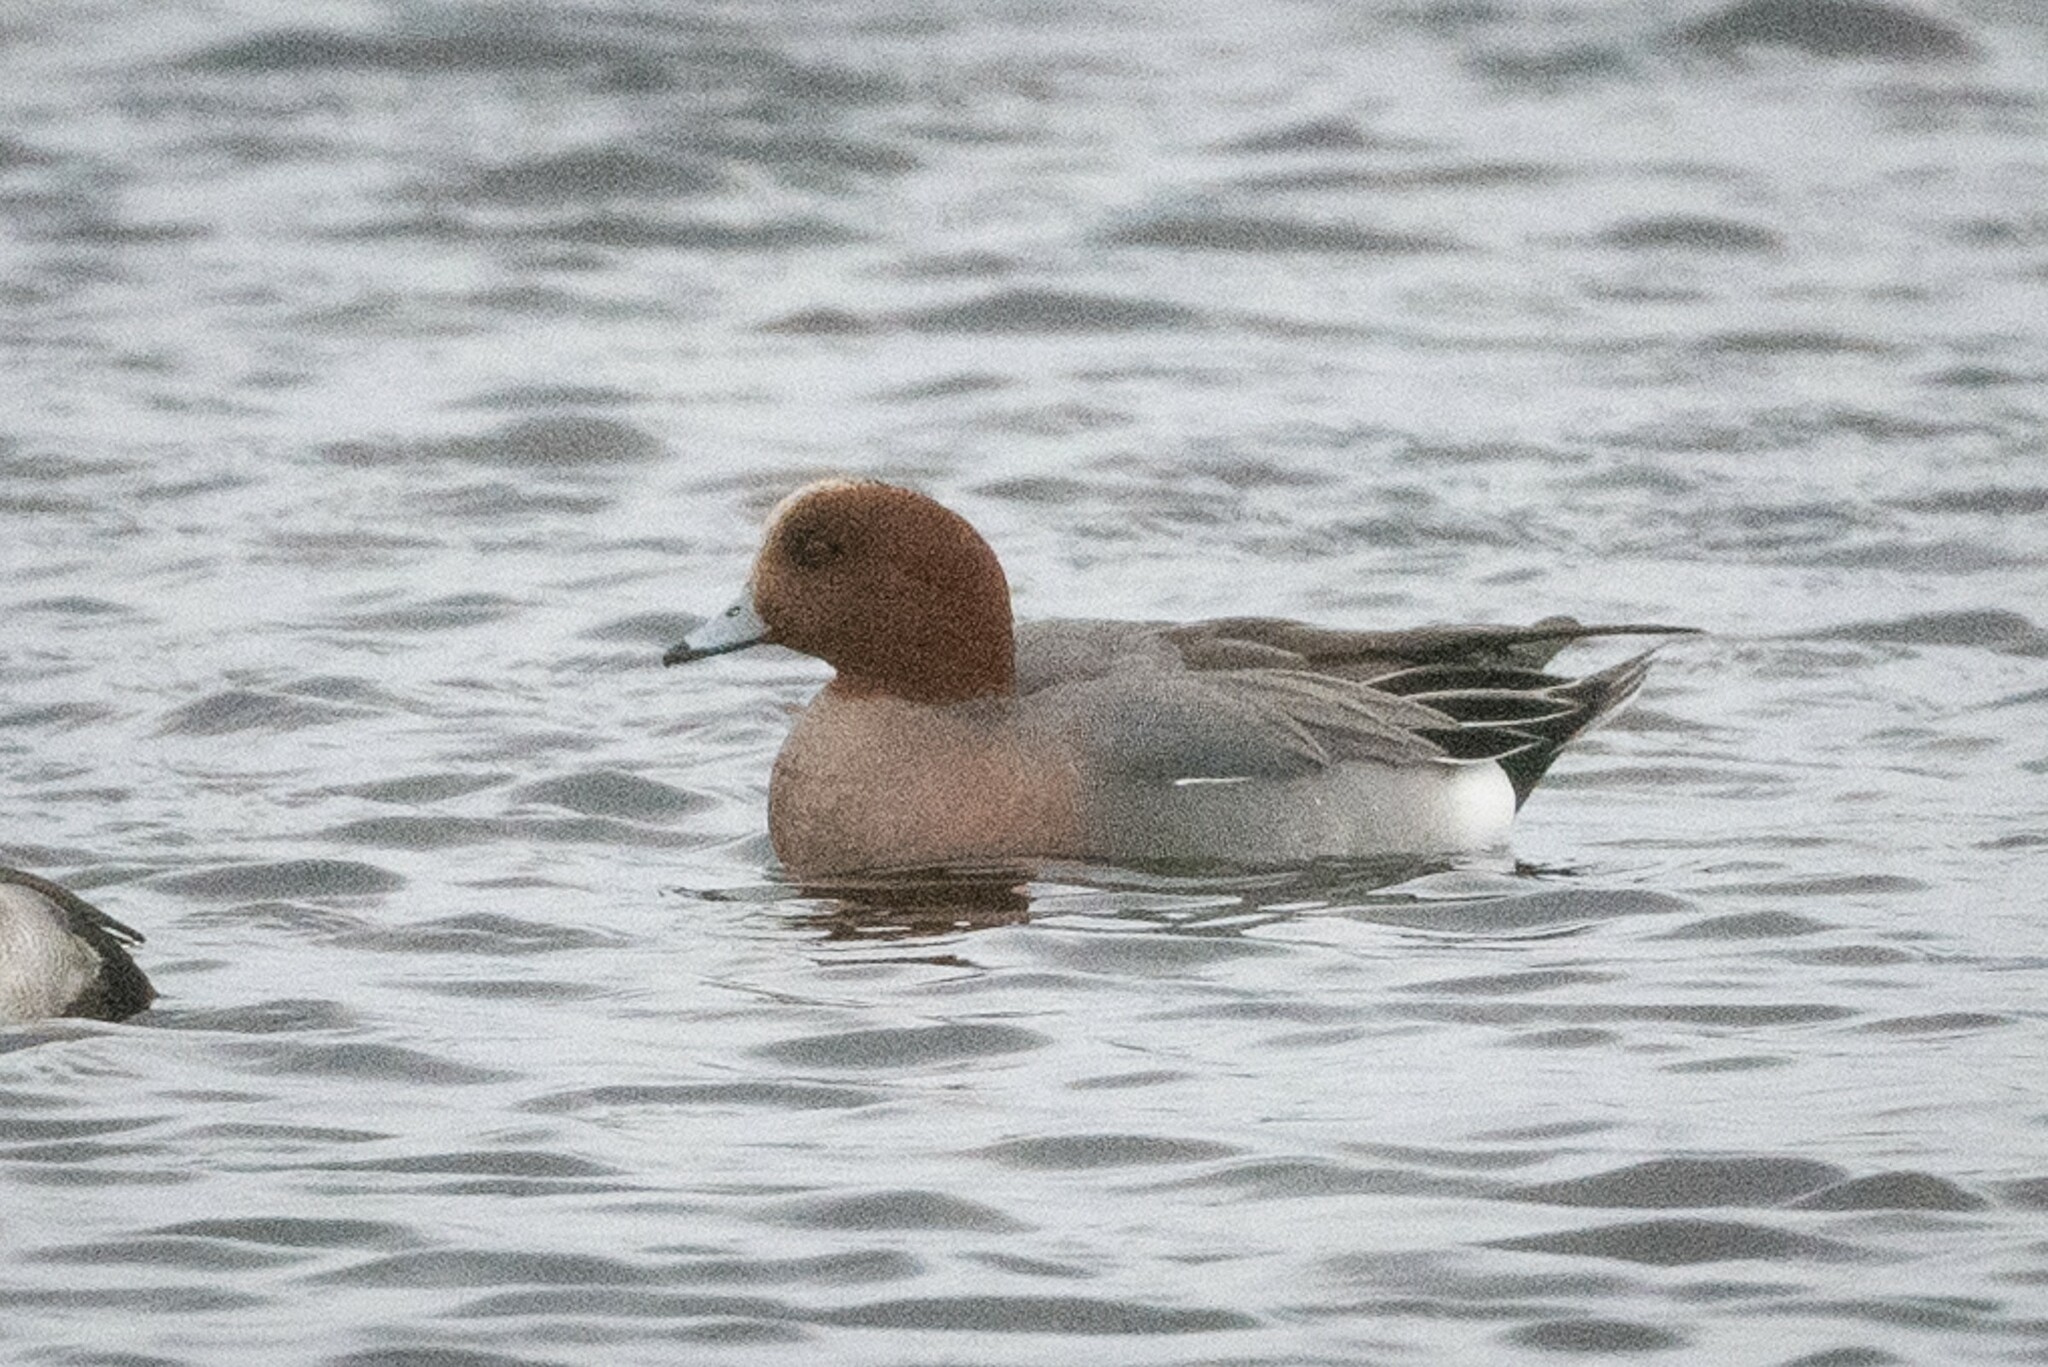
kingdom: Animalia
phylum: Chordata
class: Aves
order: Anseriformes
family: Anatidae
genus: Mareca
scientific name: Mareca penelope
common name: Eurasian wigeon
